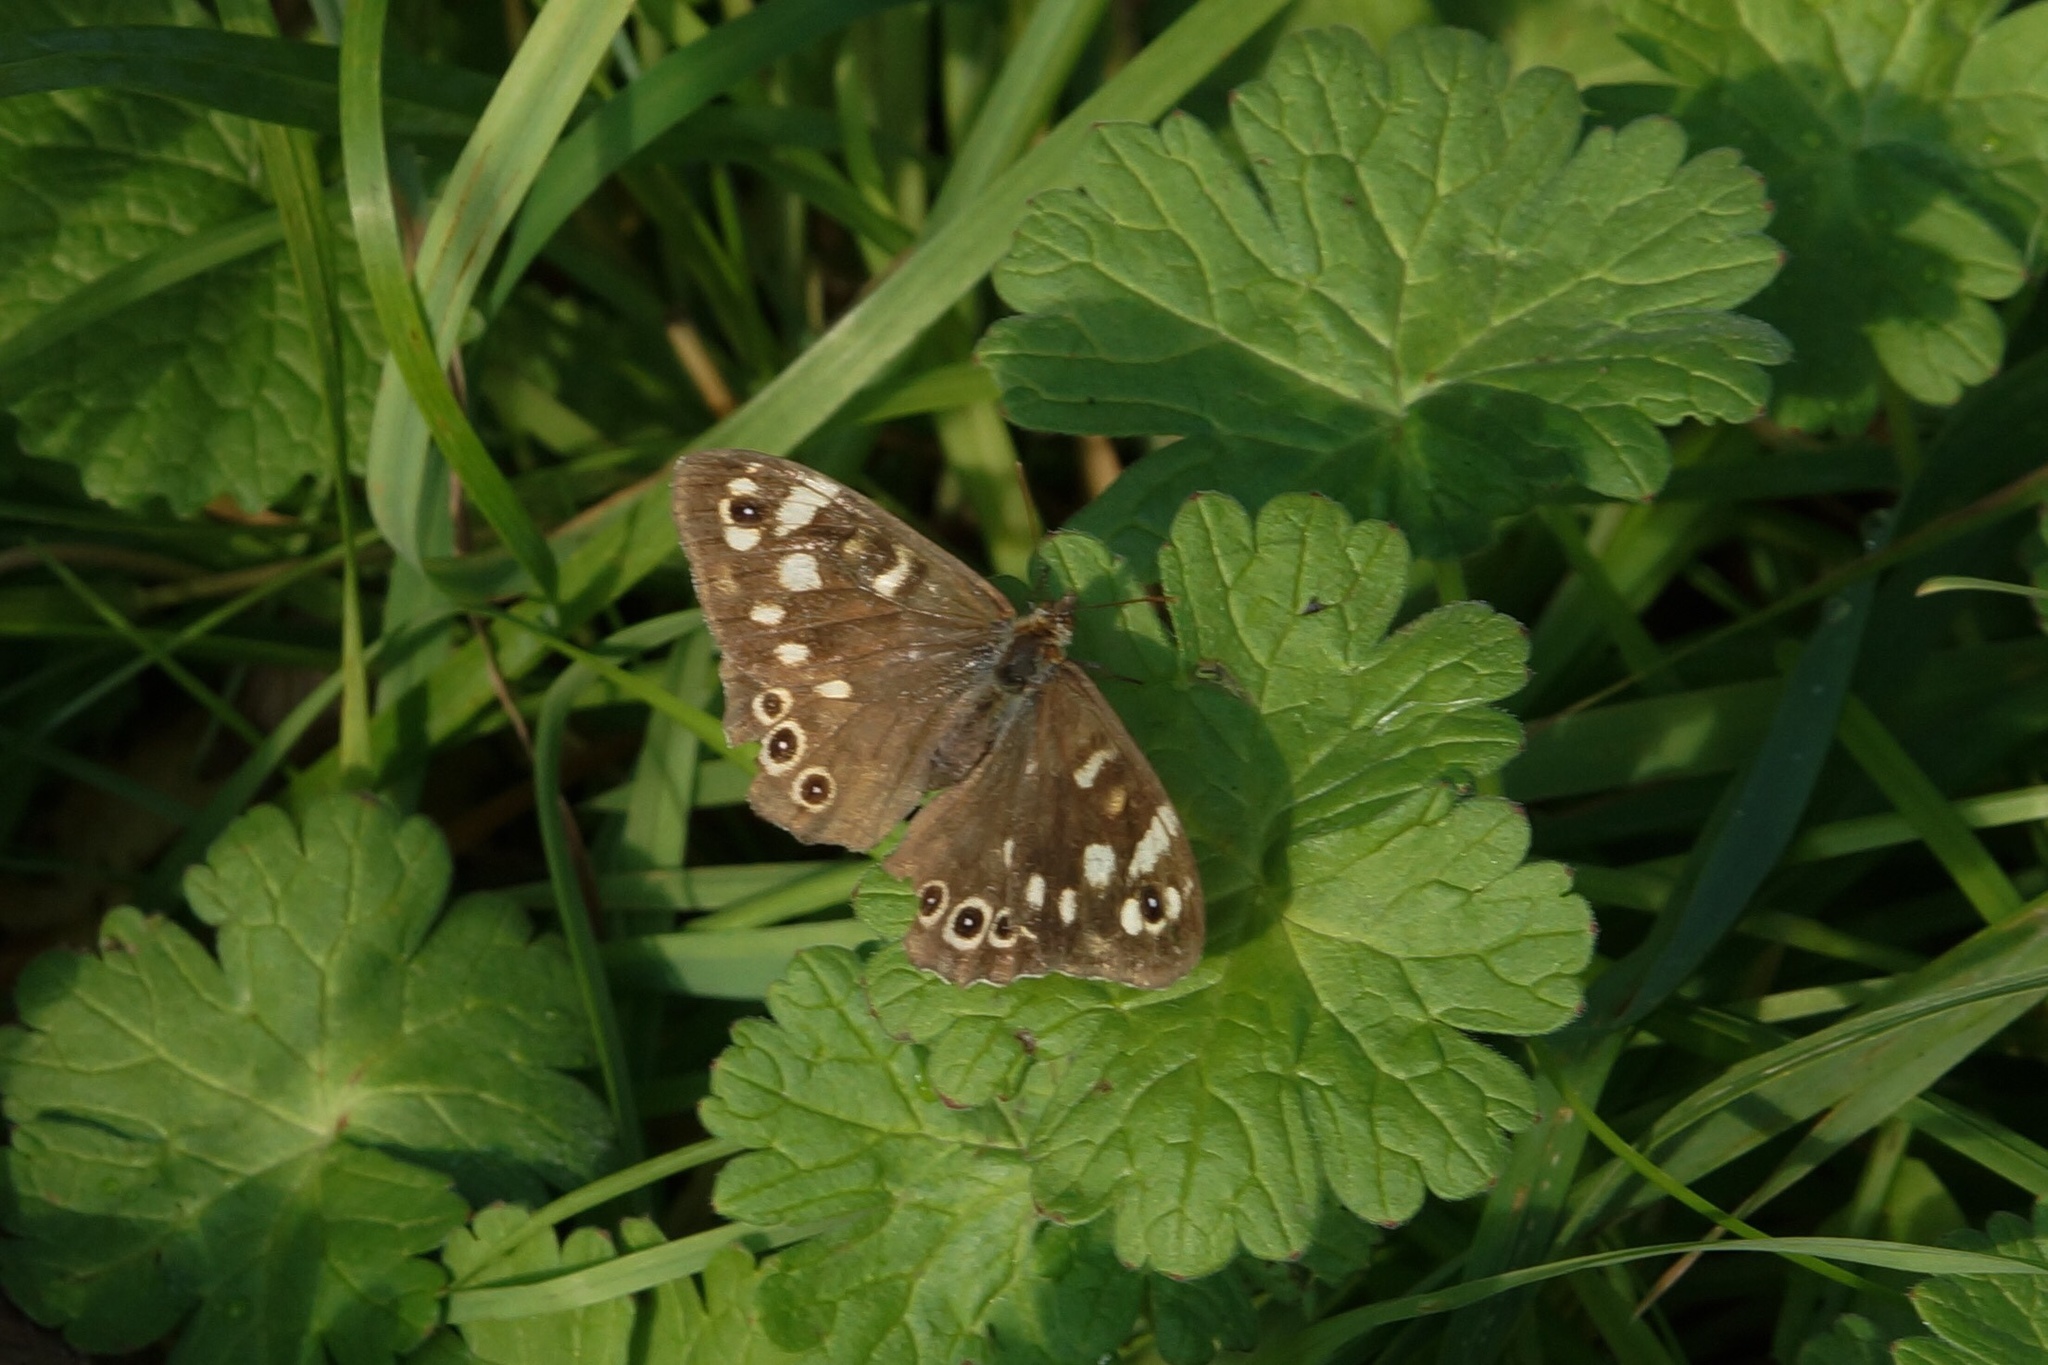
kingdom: Animalia
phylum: Arthropoda
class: Insecta
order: Lepidoptera
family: Nymphalidae
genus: Pararge
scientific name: Pararge aegeria
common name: Speckled wood
